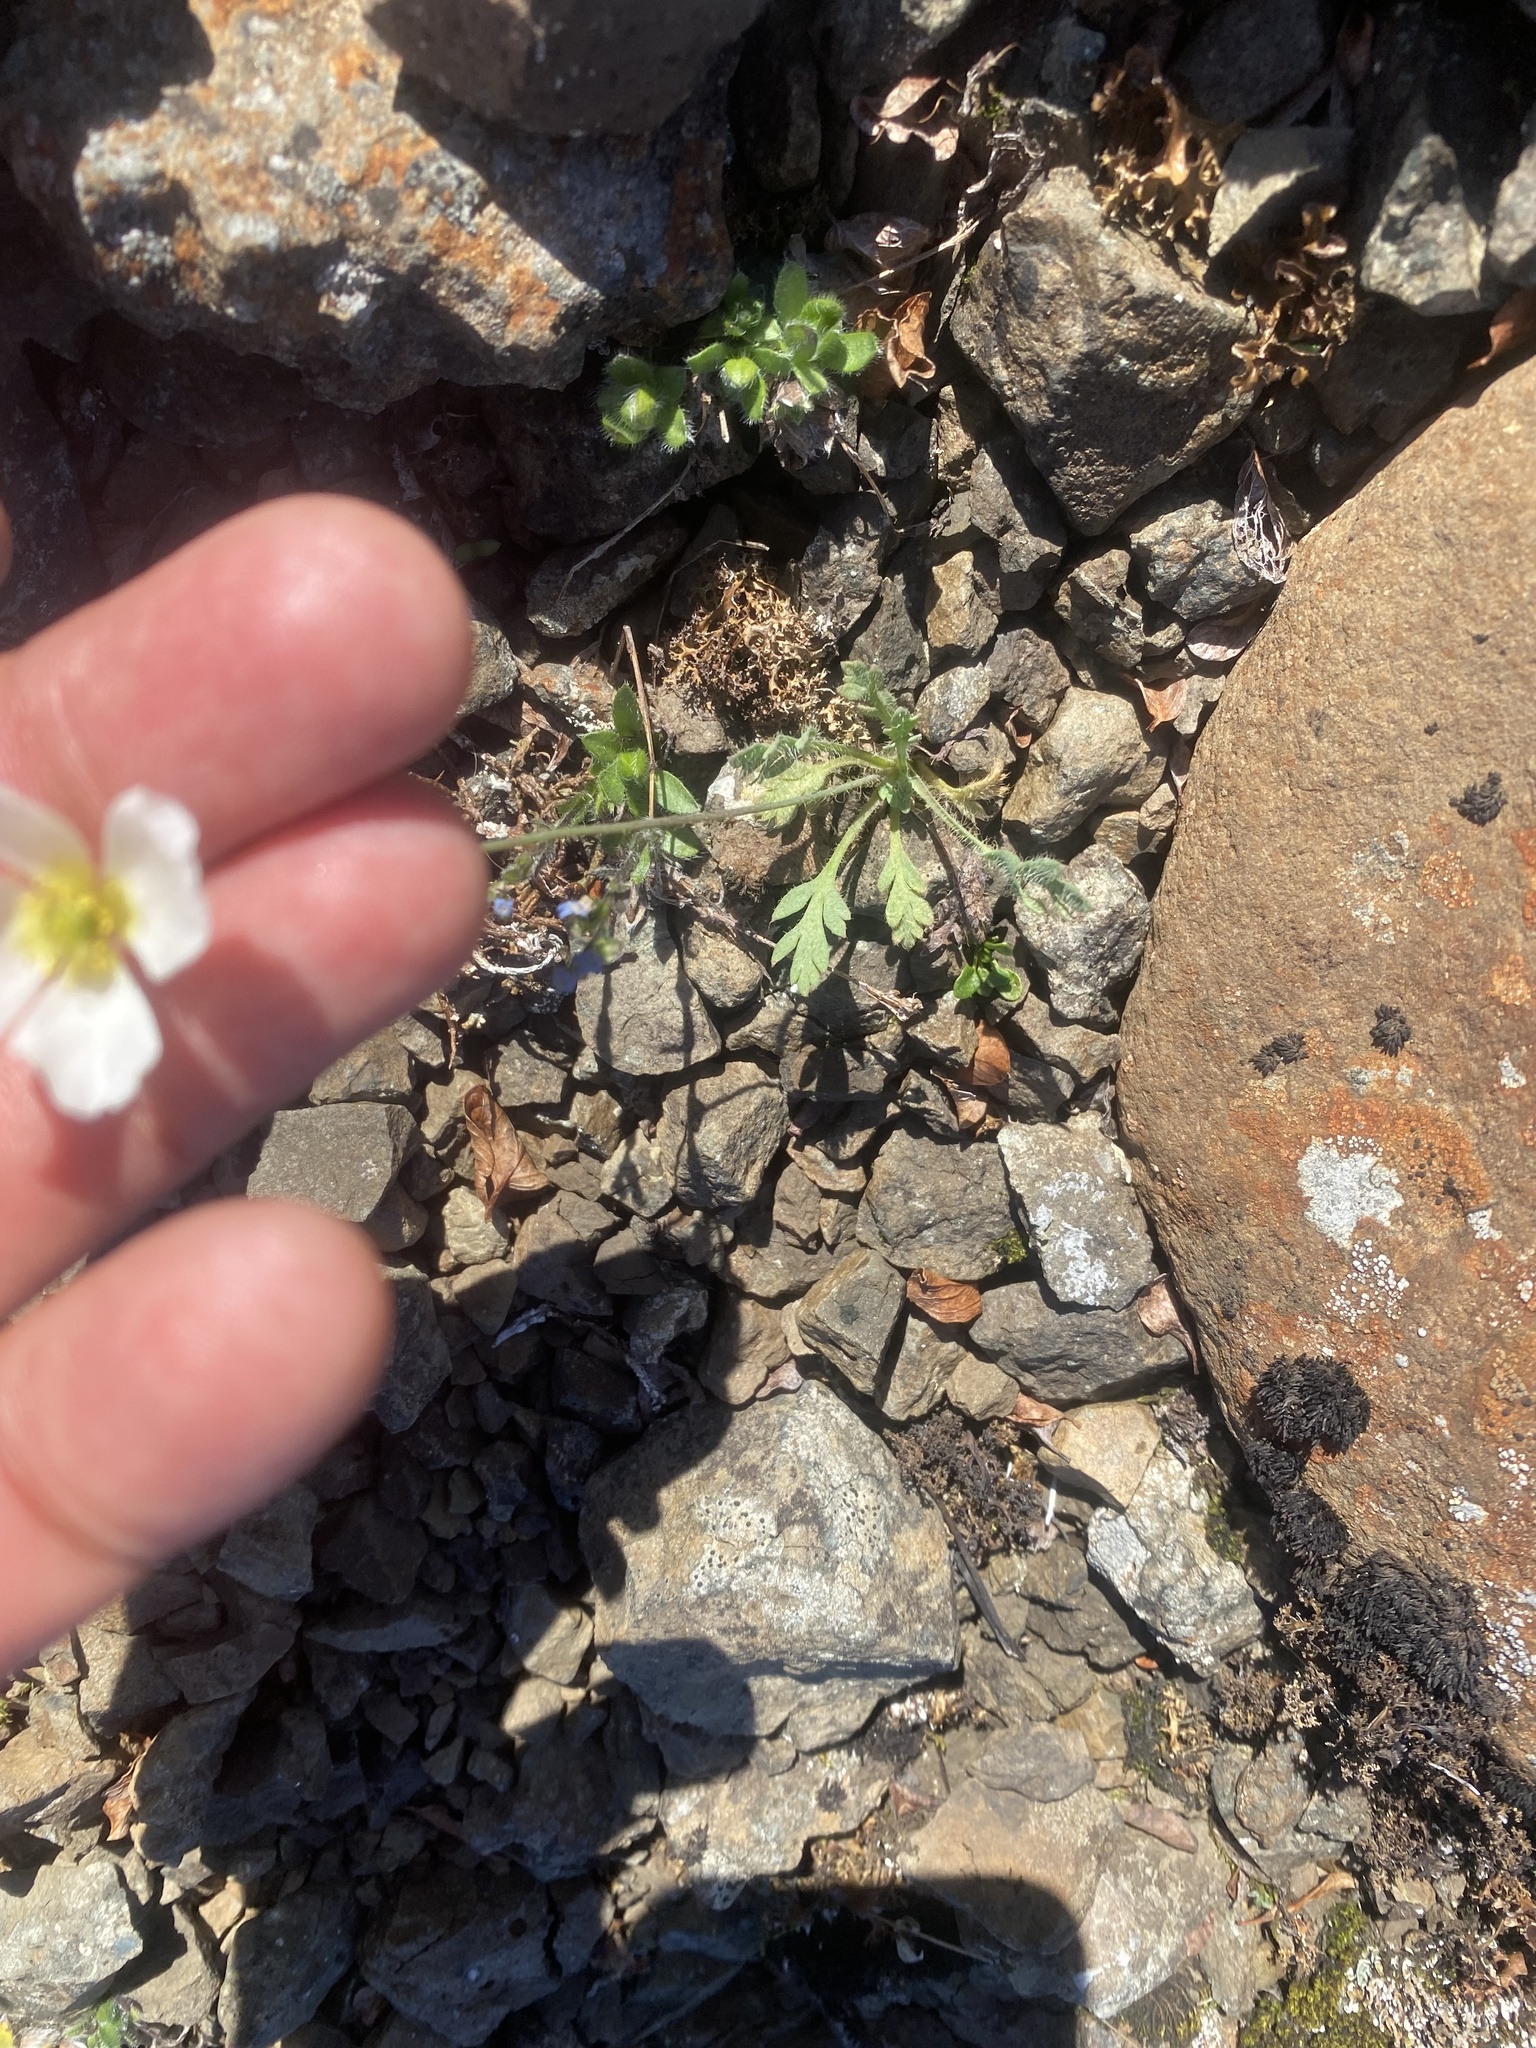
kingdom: Plantae
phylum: Tracheophyta
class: Magnoliopsida
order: Ranunculales
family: Papaveraceae
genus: Papaver
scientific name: Papaver variegatum
